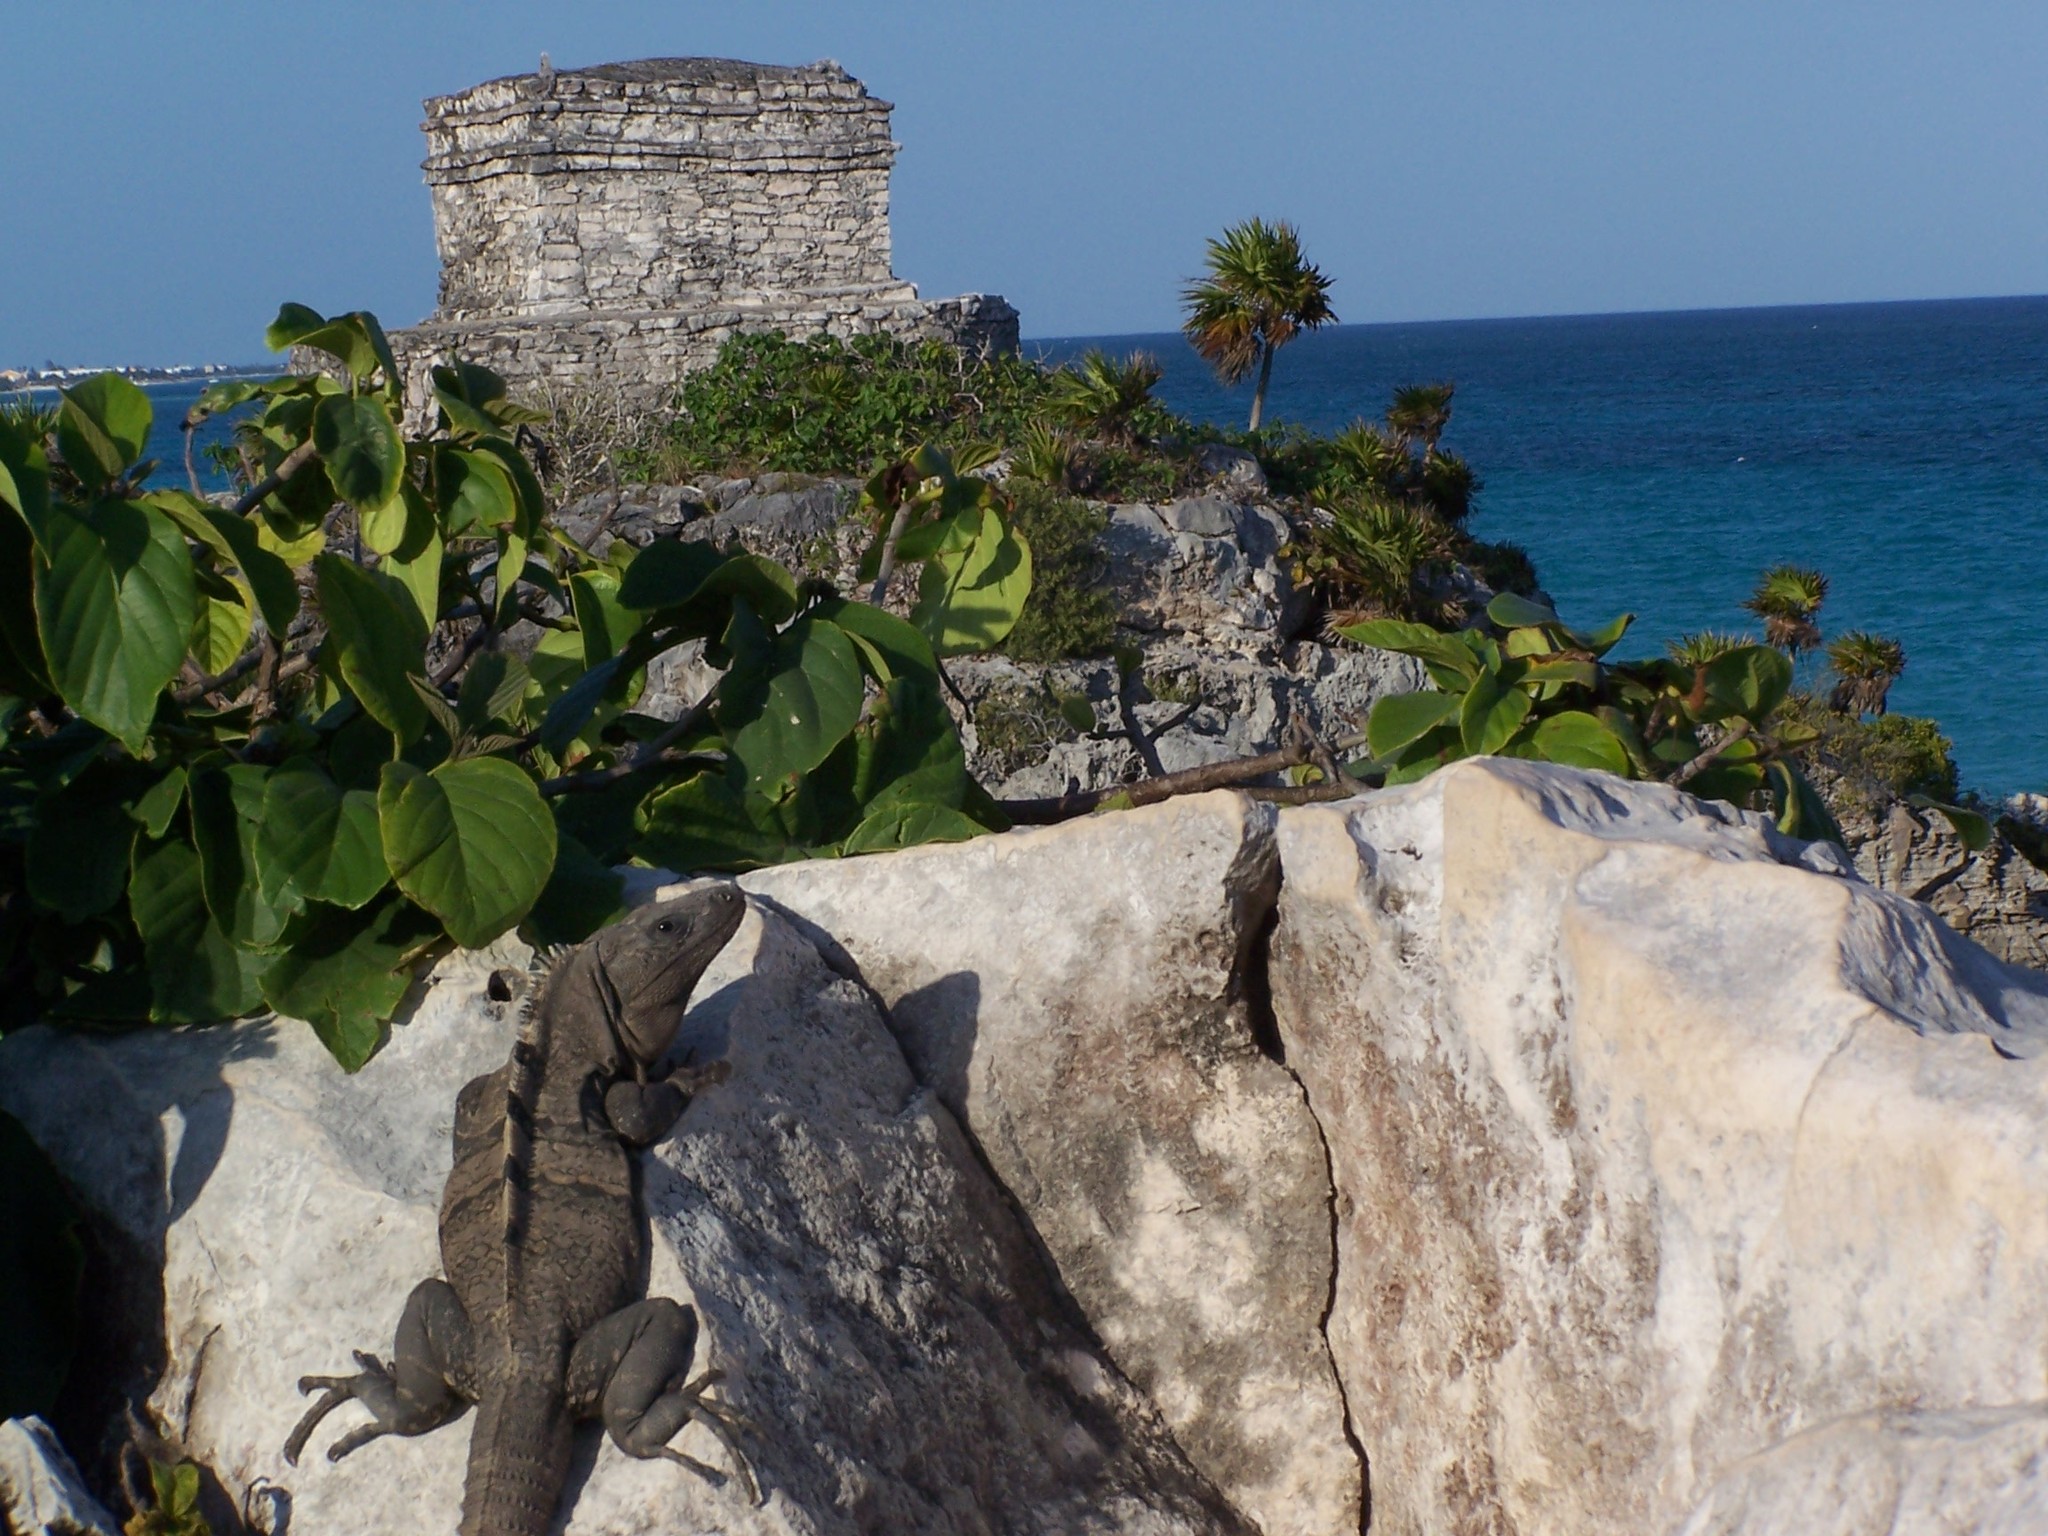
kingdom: Animalia
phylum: Chordata
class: Squamata
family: Iguanidae
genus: Ctenosaura
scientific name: Ctenosaura similis
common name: Black spiny-tailed iguana
